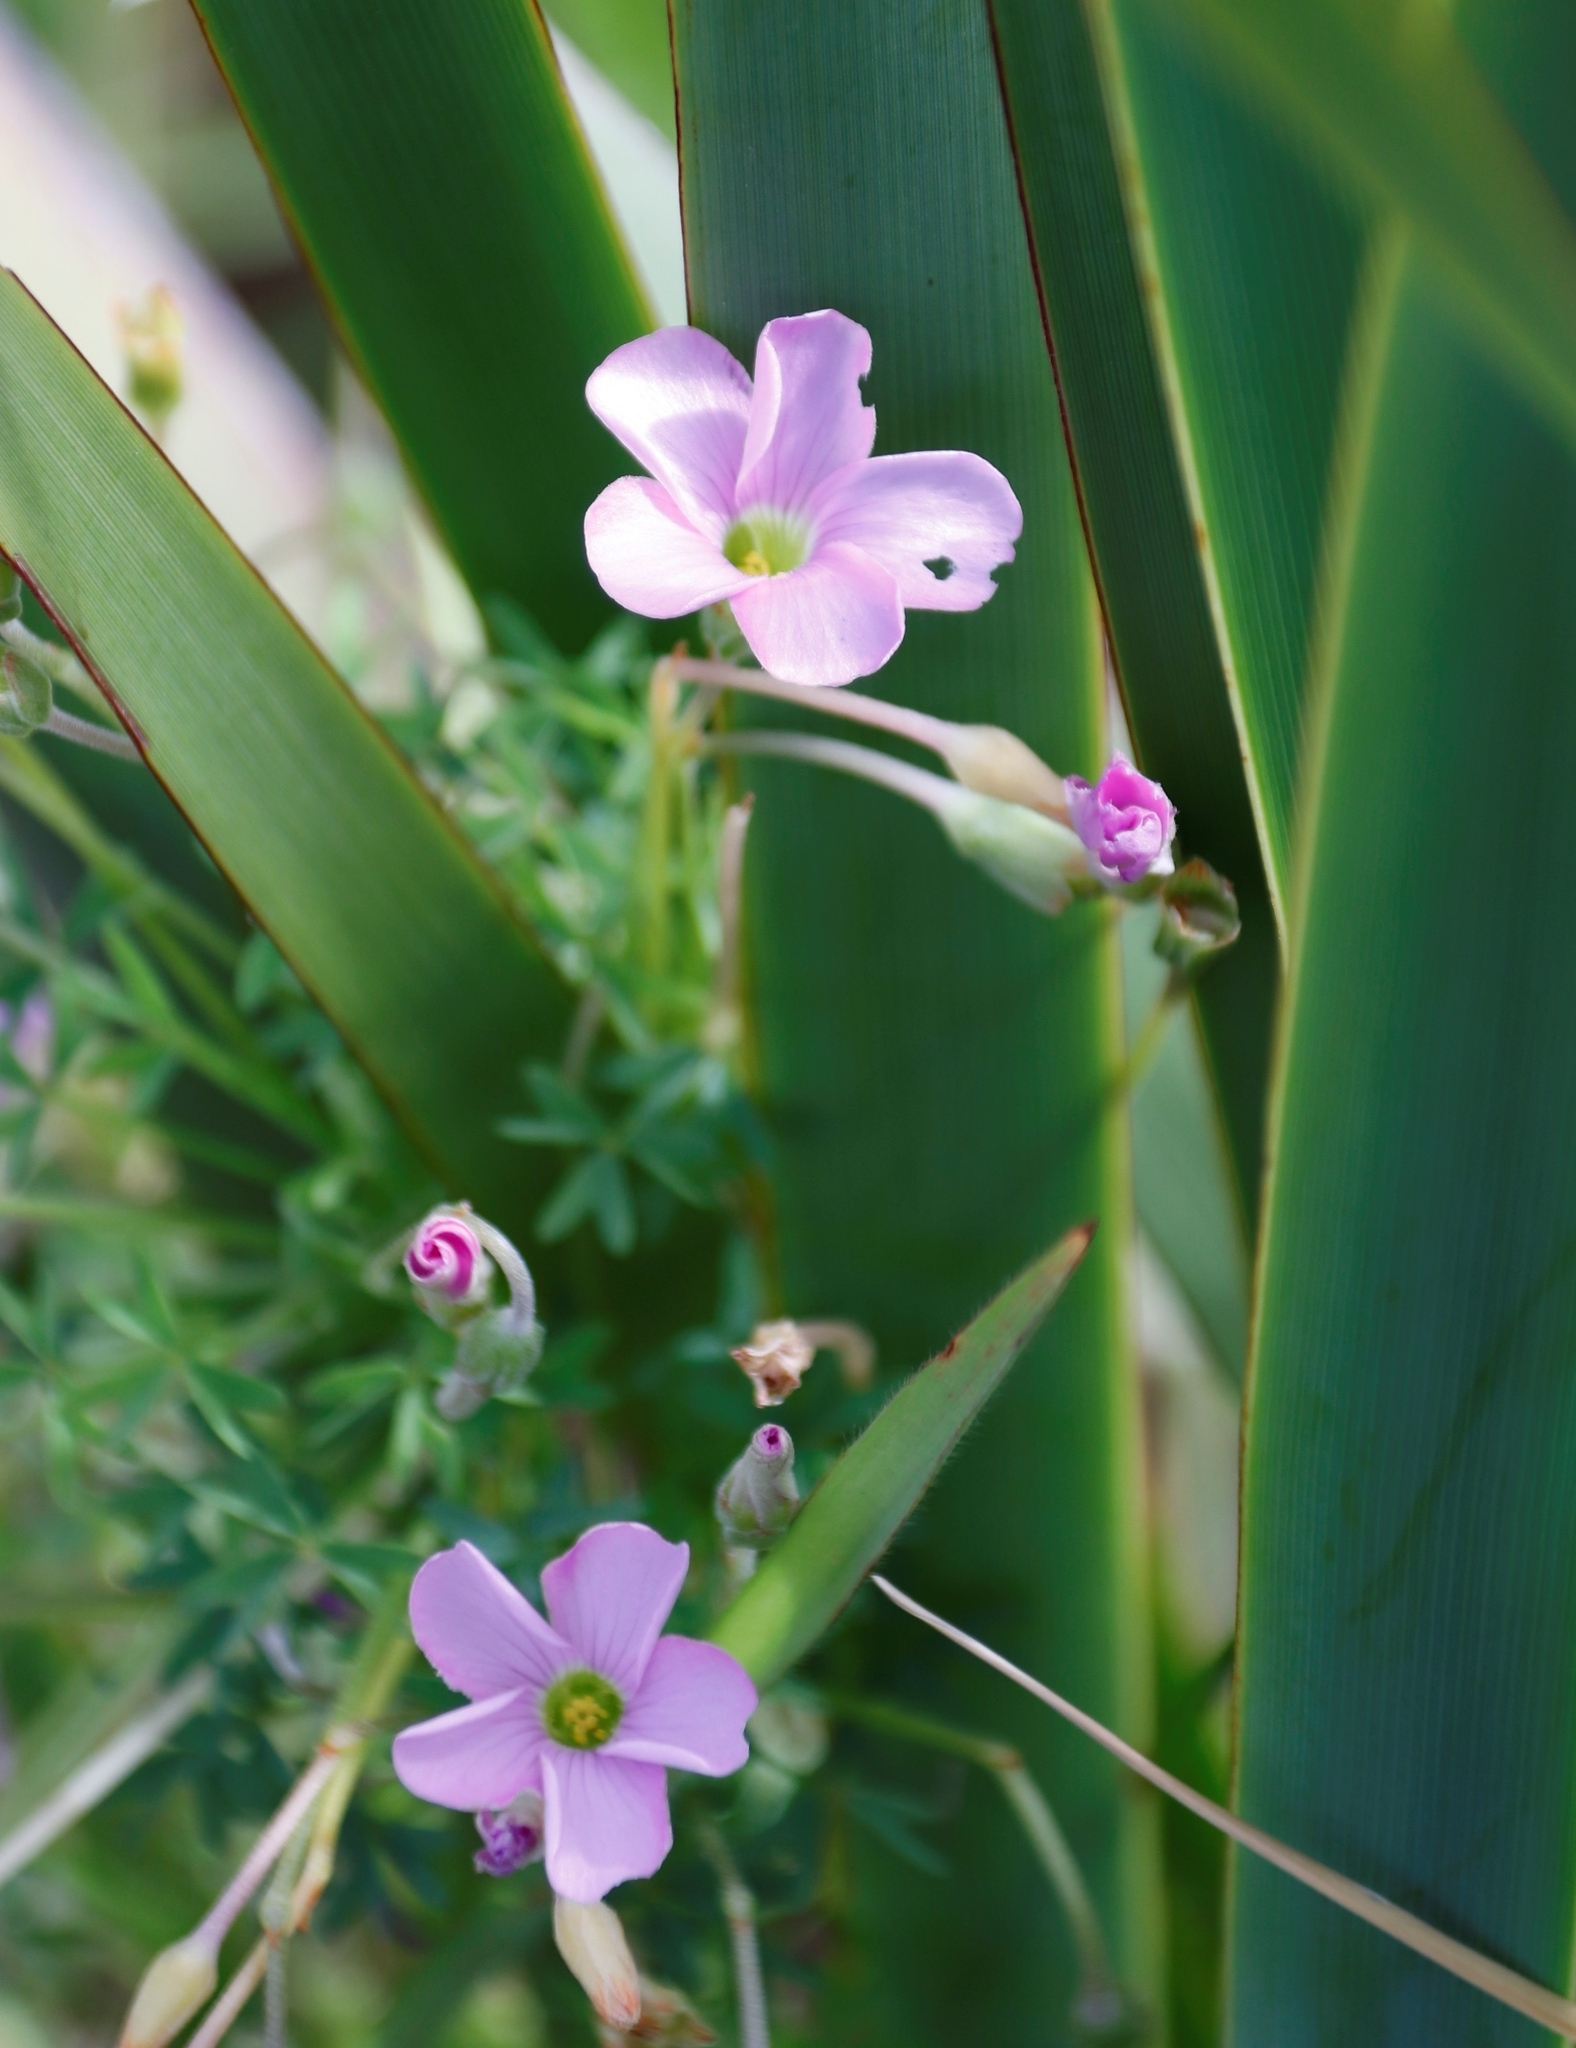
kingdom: Plantae
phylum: Tracheophyta
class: Magnoliopsida
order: Oxalidales
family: Oxalidaceae
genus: Oxalis
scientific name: Oxalis bifida
